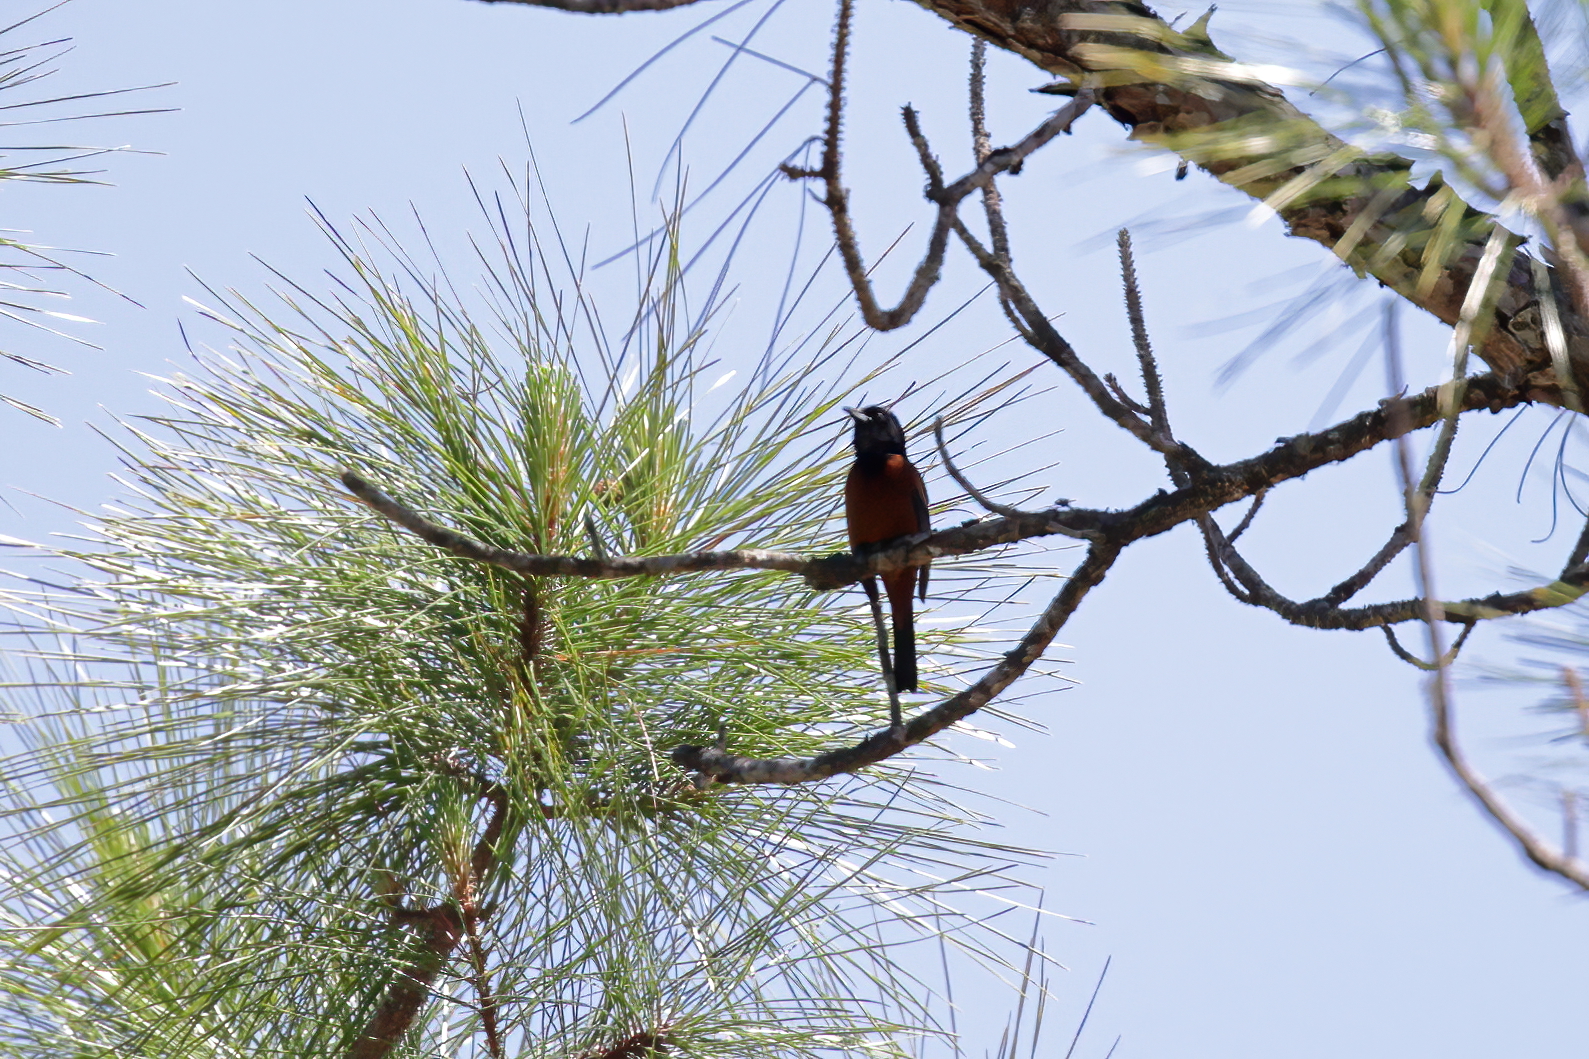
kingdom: Animalia
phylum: Chordata
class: Aves
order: Passeriformes
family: Icteridae
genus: Icterus
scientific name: Icterus spurius
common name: Orchard oriole
